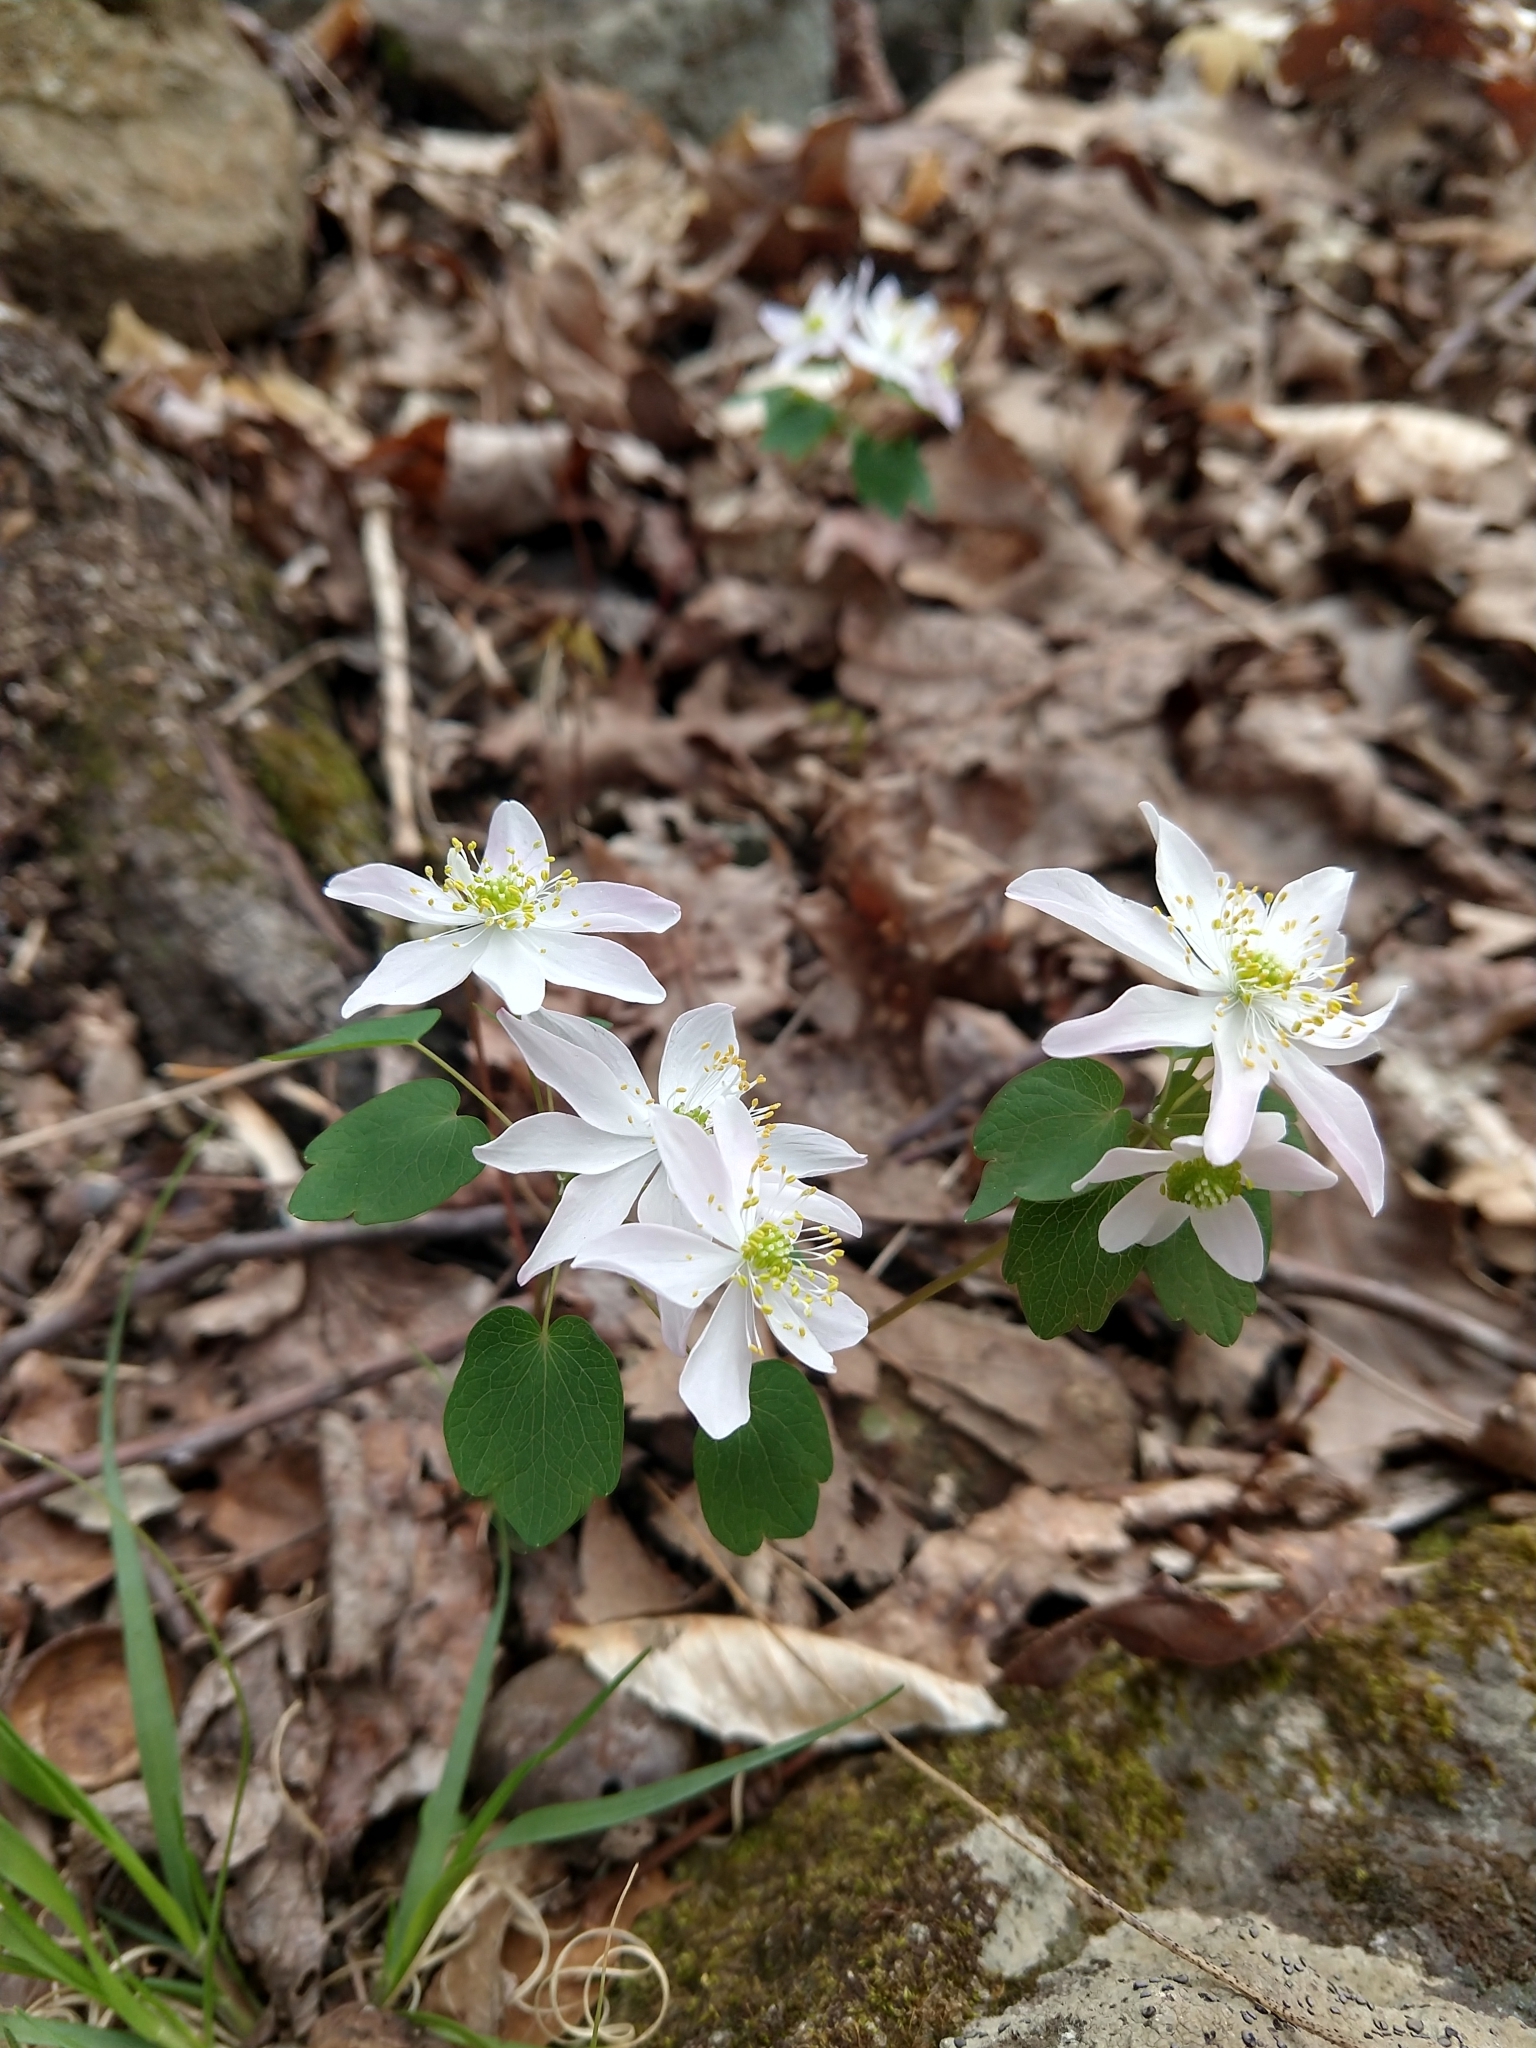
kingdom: Plantae
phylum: Tracheophyta
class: Magnoliopsida
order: Ranunculales
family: Ranunculaceae
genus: Thalictrum
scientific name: Thalictrum thalictroides
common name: Rue-anemone
